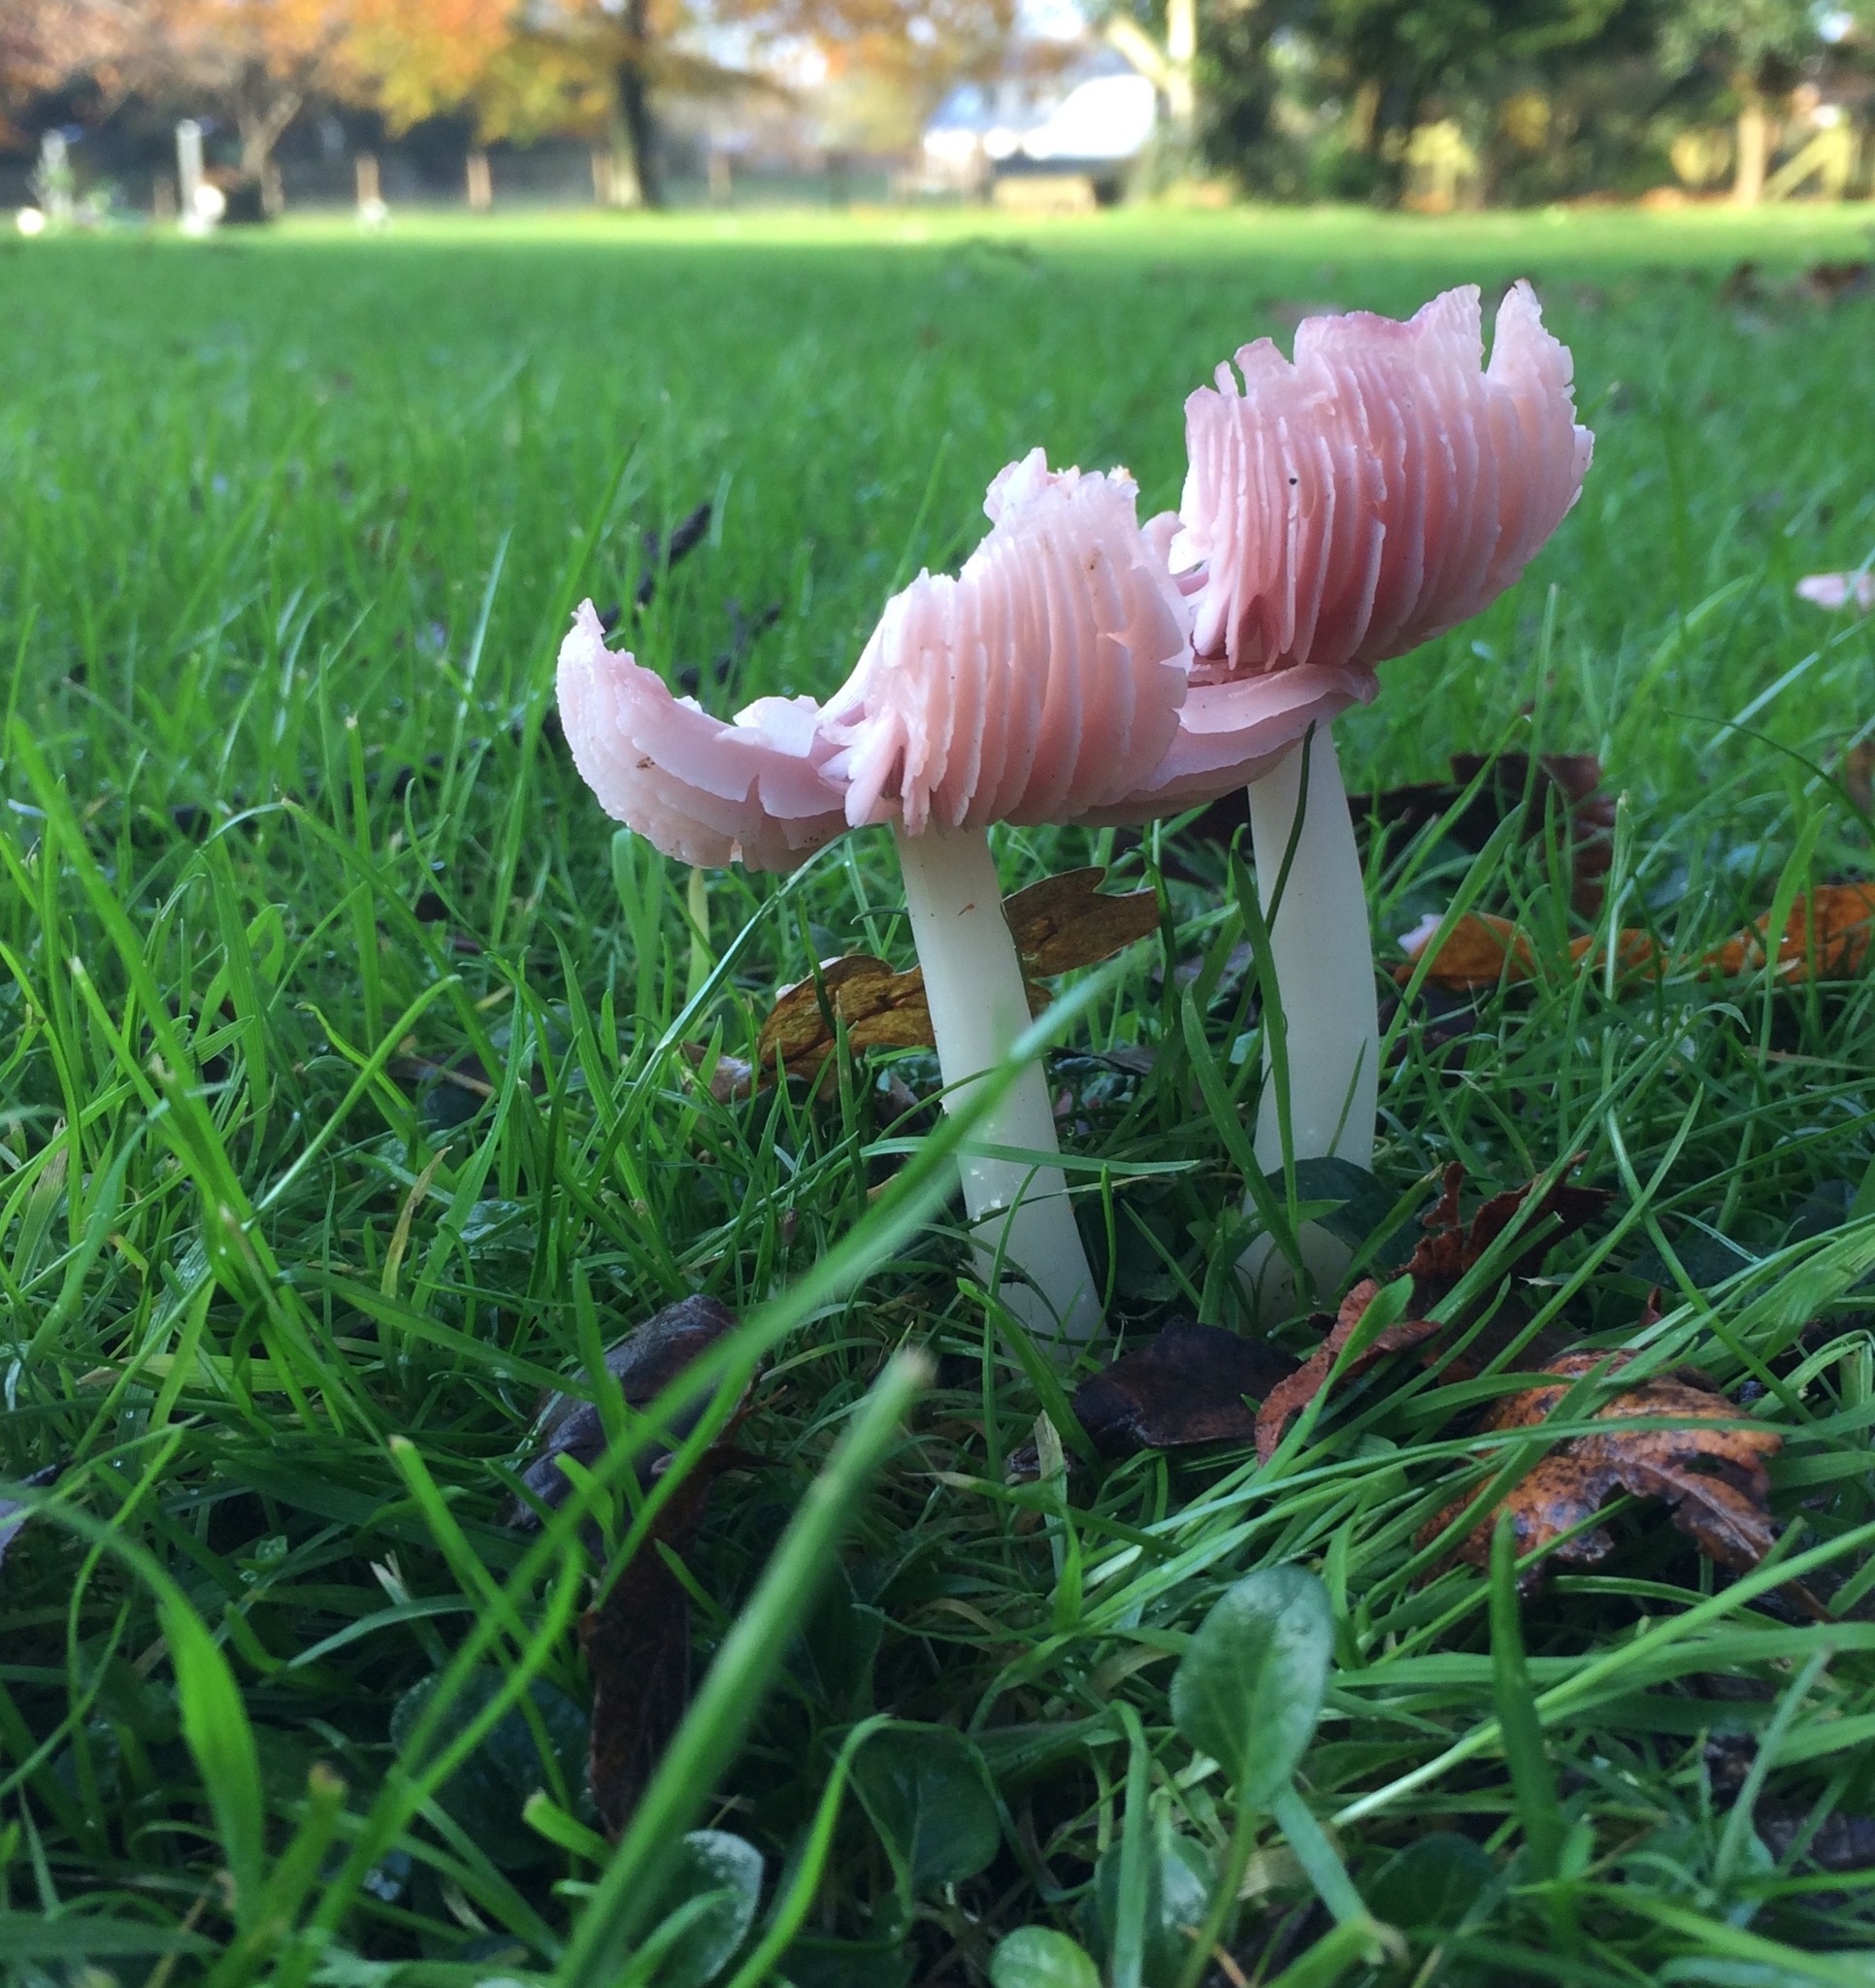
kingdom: Fungi
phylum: Basidiomycota
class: Agaricomycetes
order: Agaricales
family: Hygrophoraceae
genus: Porpolomopsis
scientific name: Porpolomopsis calyptriformis
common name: Pink waxcap
